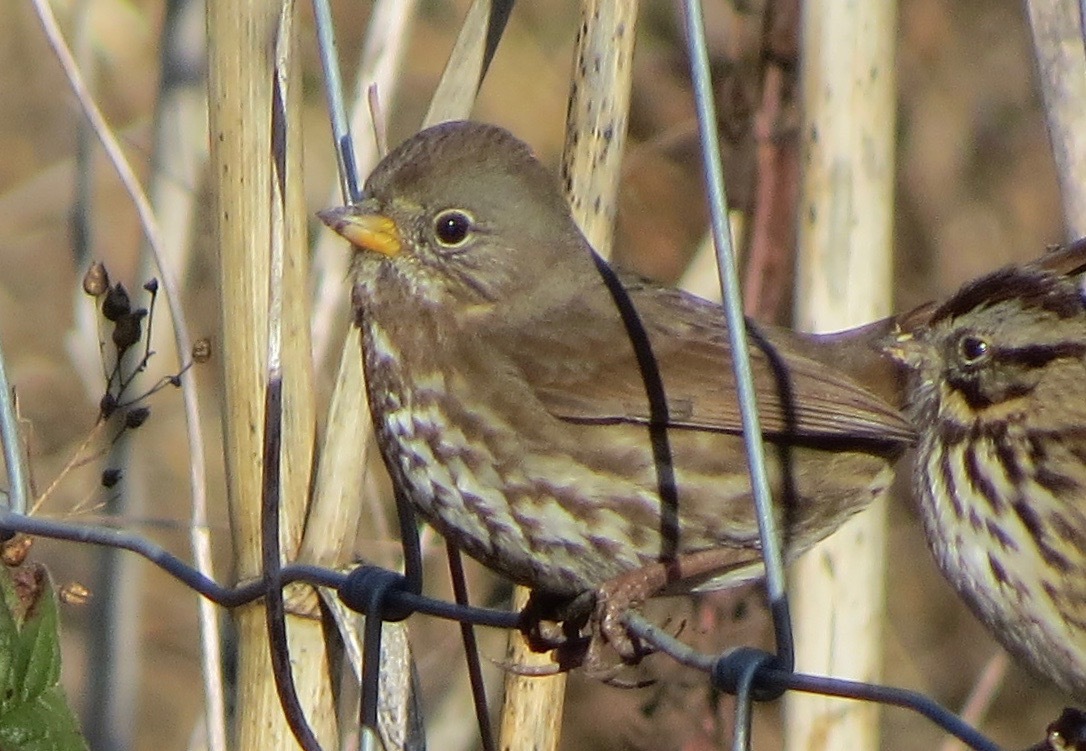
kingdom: Animalia
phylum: Chordata
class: Aves
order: Passeriformes
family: Passerellidae
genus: Passerella
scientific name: Passerella iliaca
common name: Fox sparrow
